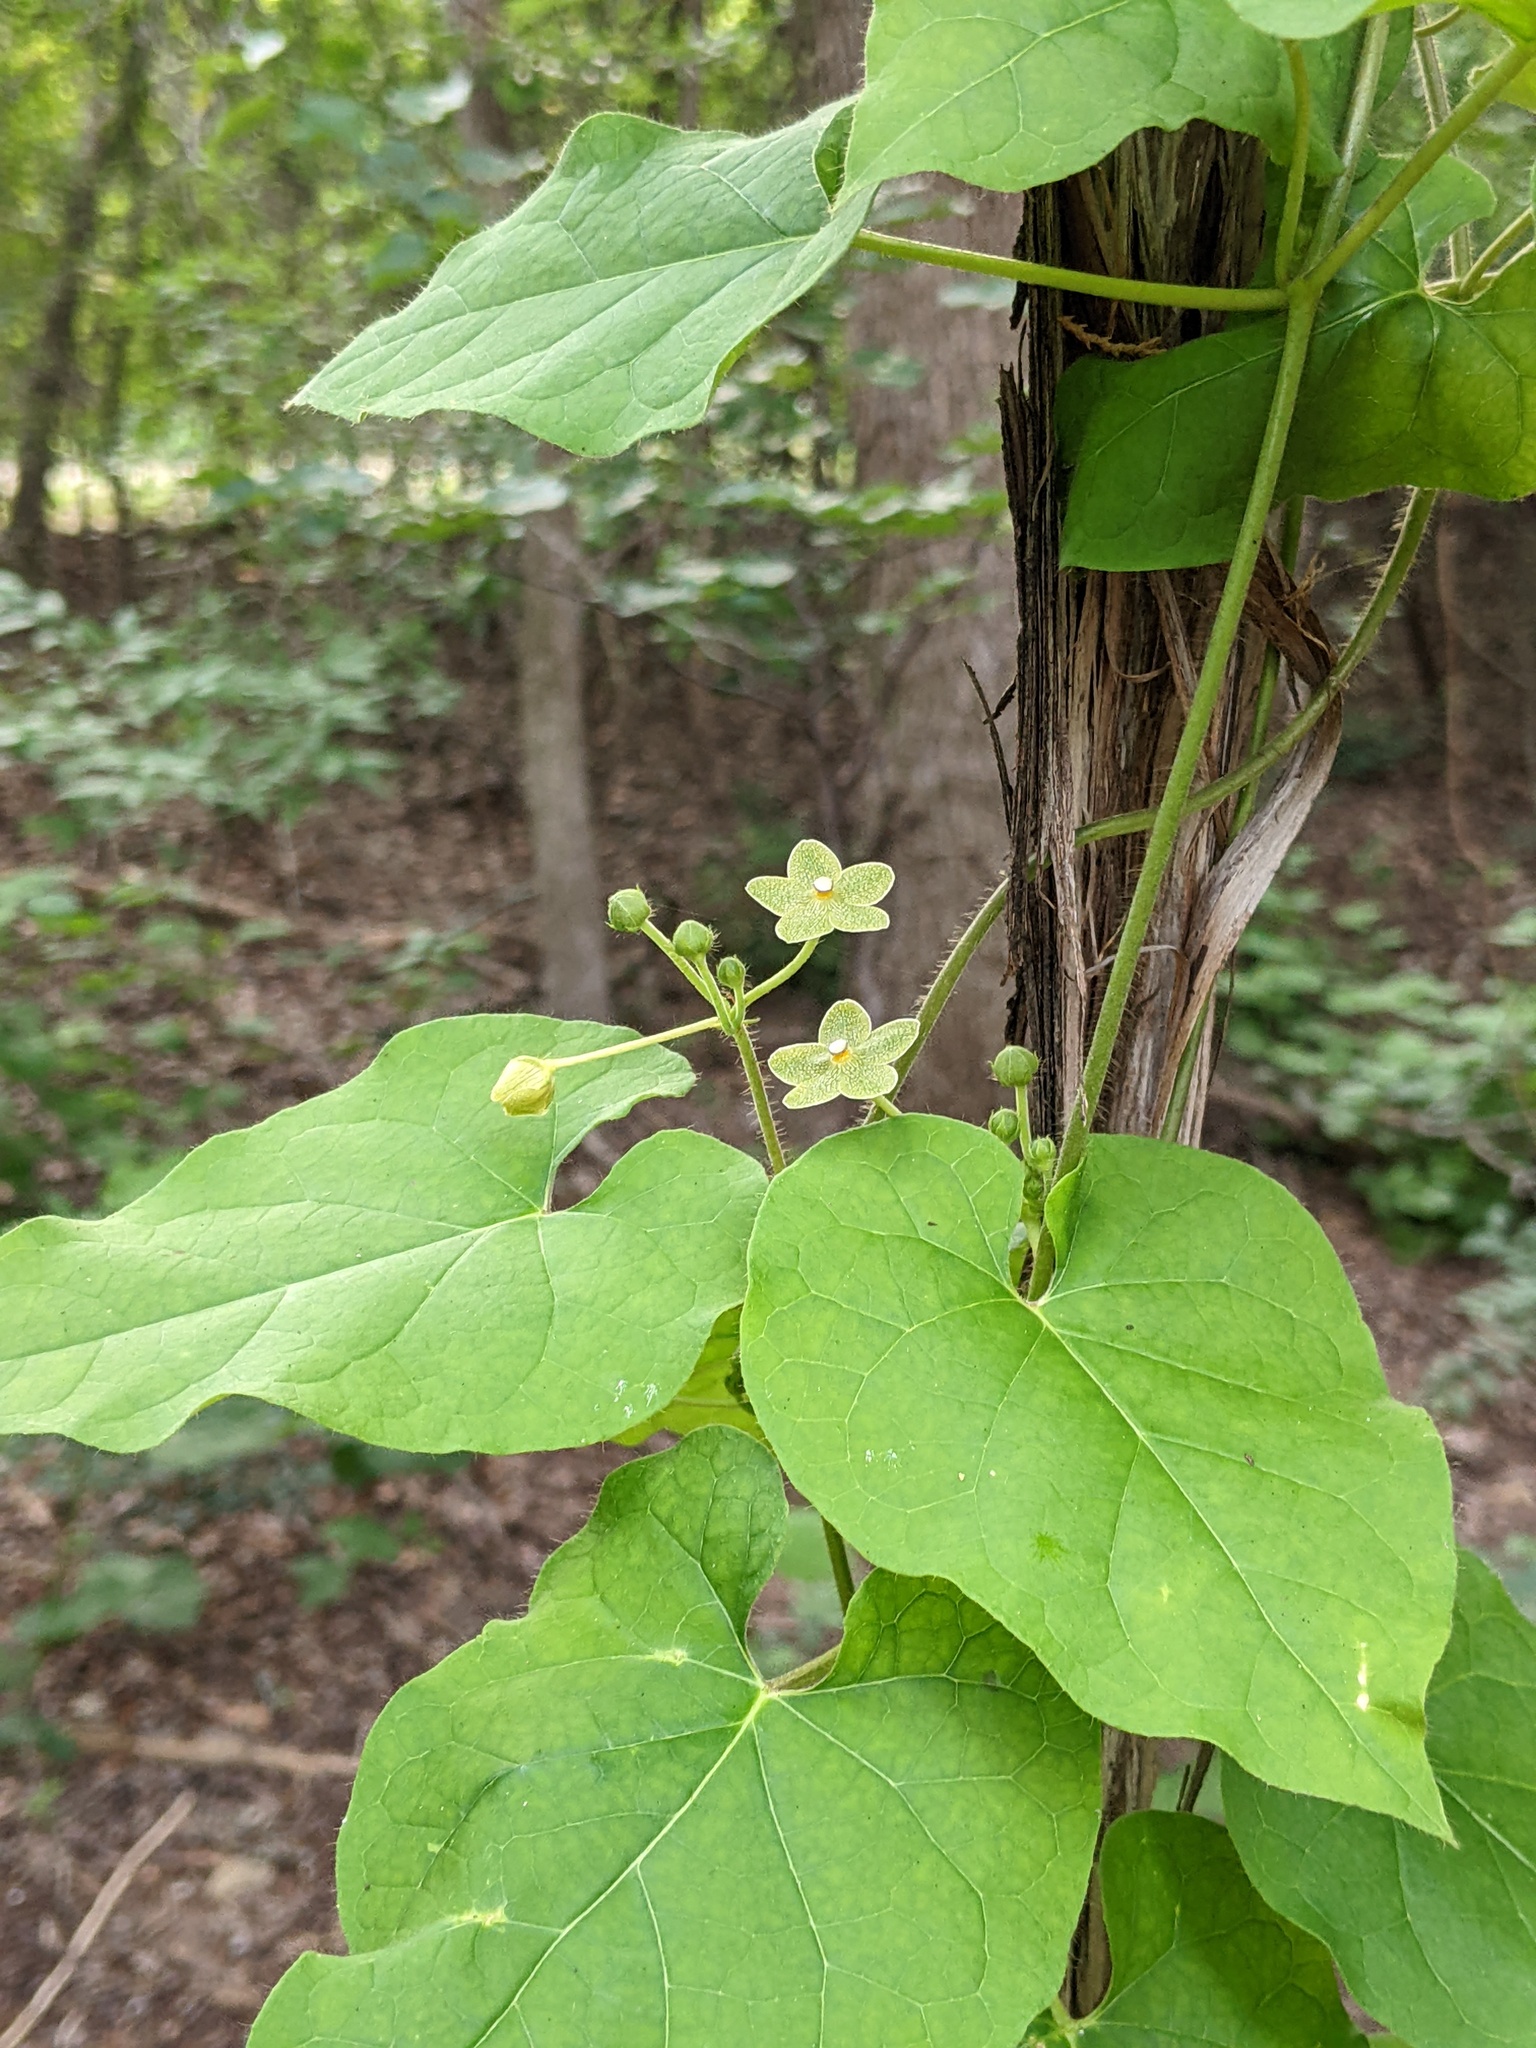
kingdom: Plantae
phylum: Tracheophyta
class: Magnoliopsida
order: Gentianales
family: Apocynaceae
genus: Dictyanthus
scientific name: Dictyanthus reticulatus
